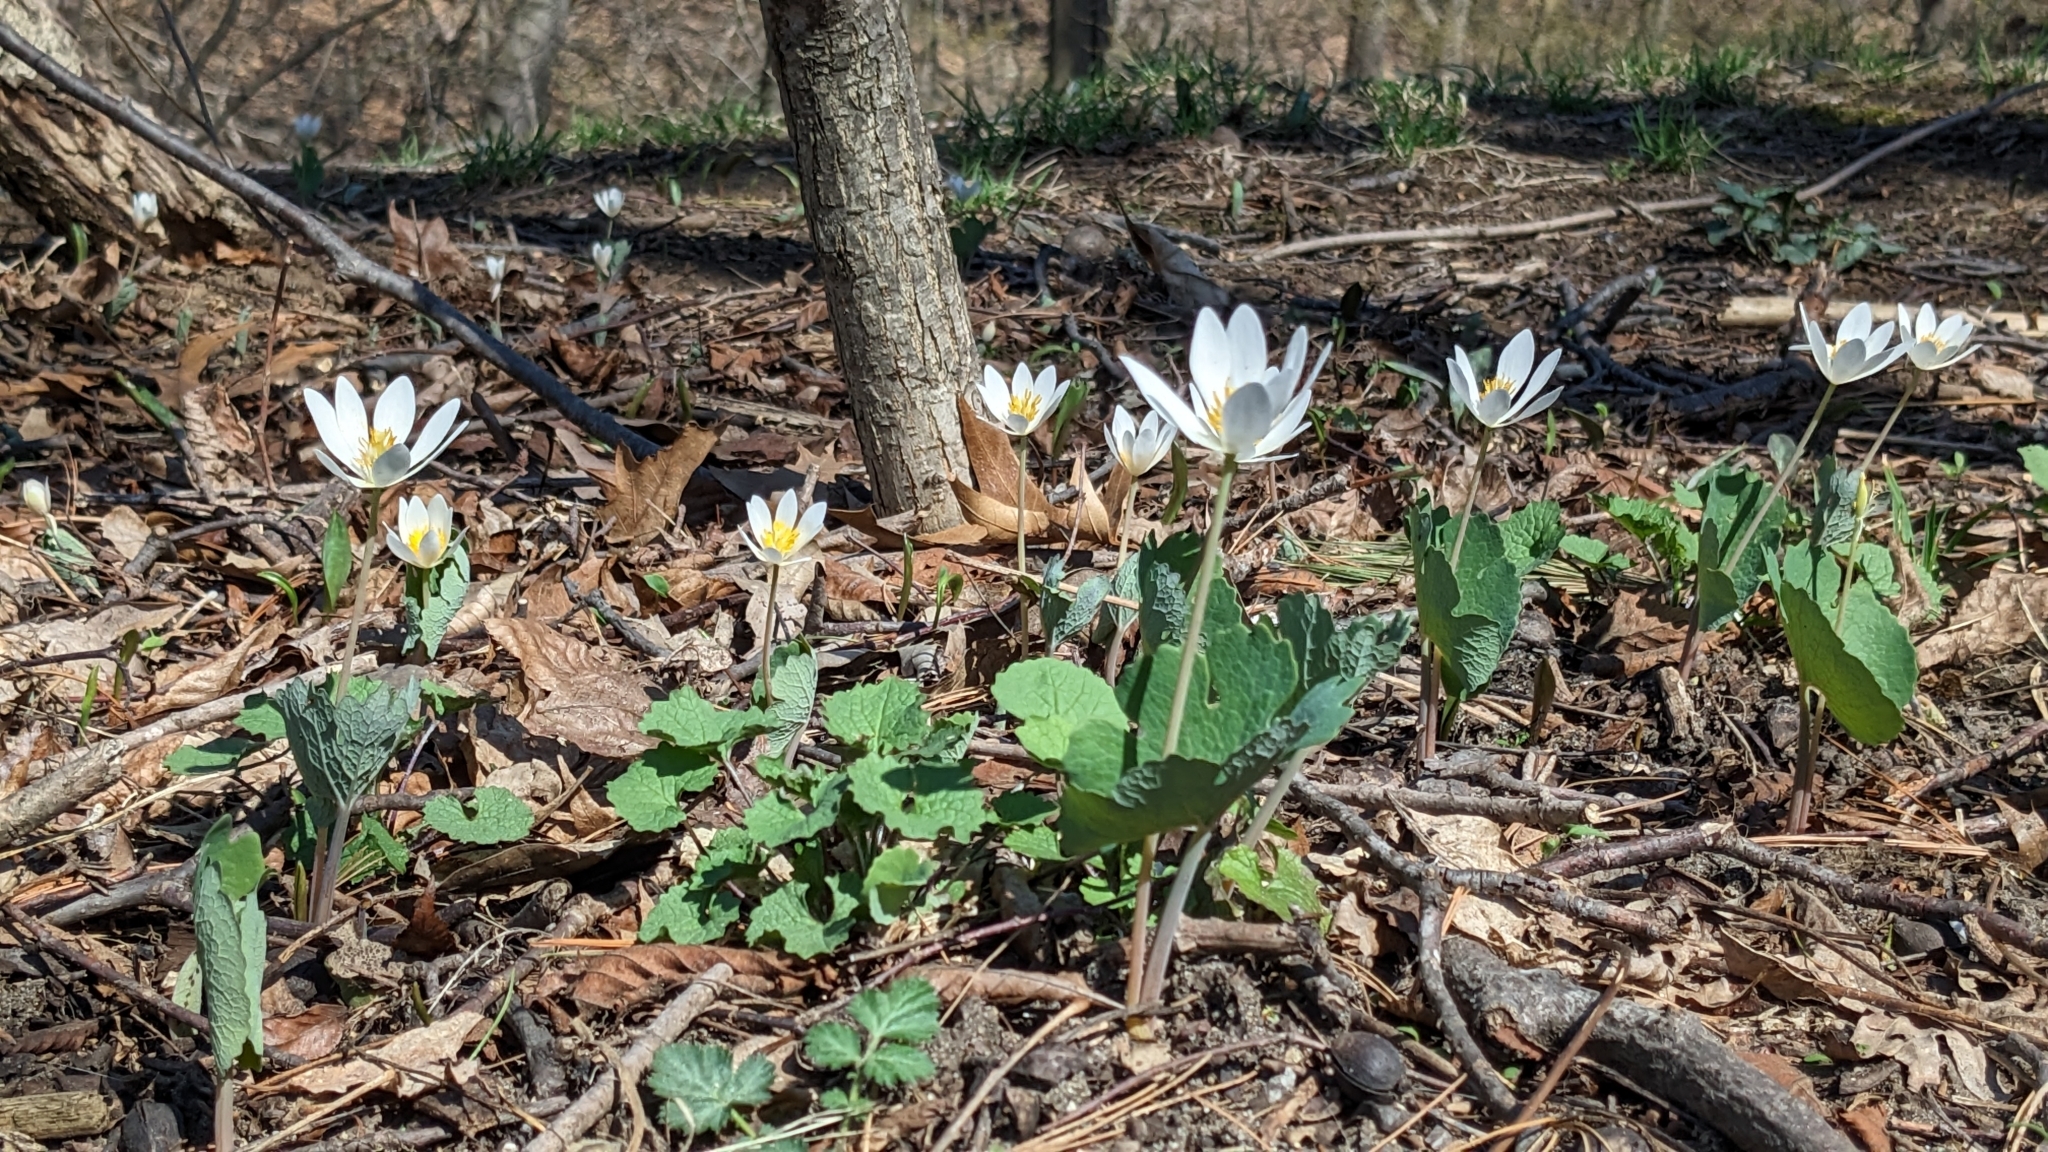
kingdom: Plantae
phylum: Tracheophyta
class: Magnoliopsida
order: Ranunculales
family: Papaveraceae
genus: Sanguinaria
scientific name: Sanguinaria canadensis
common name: Bloodroot
